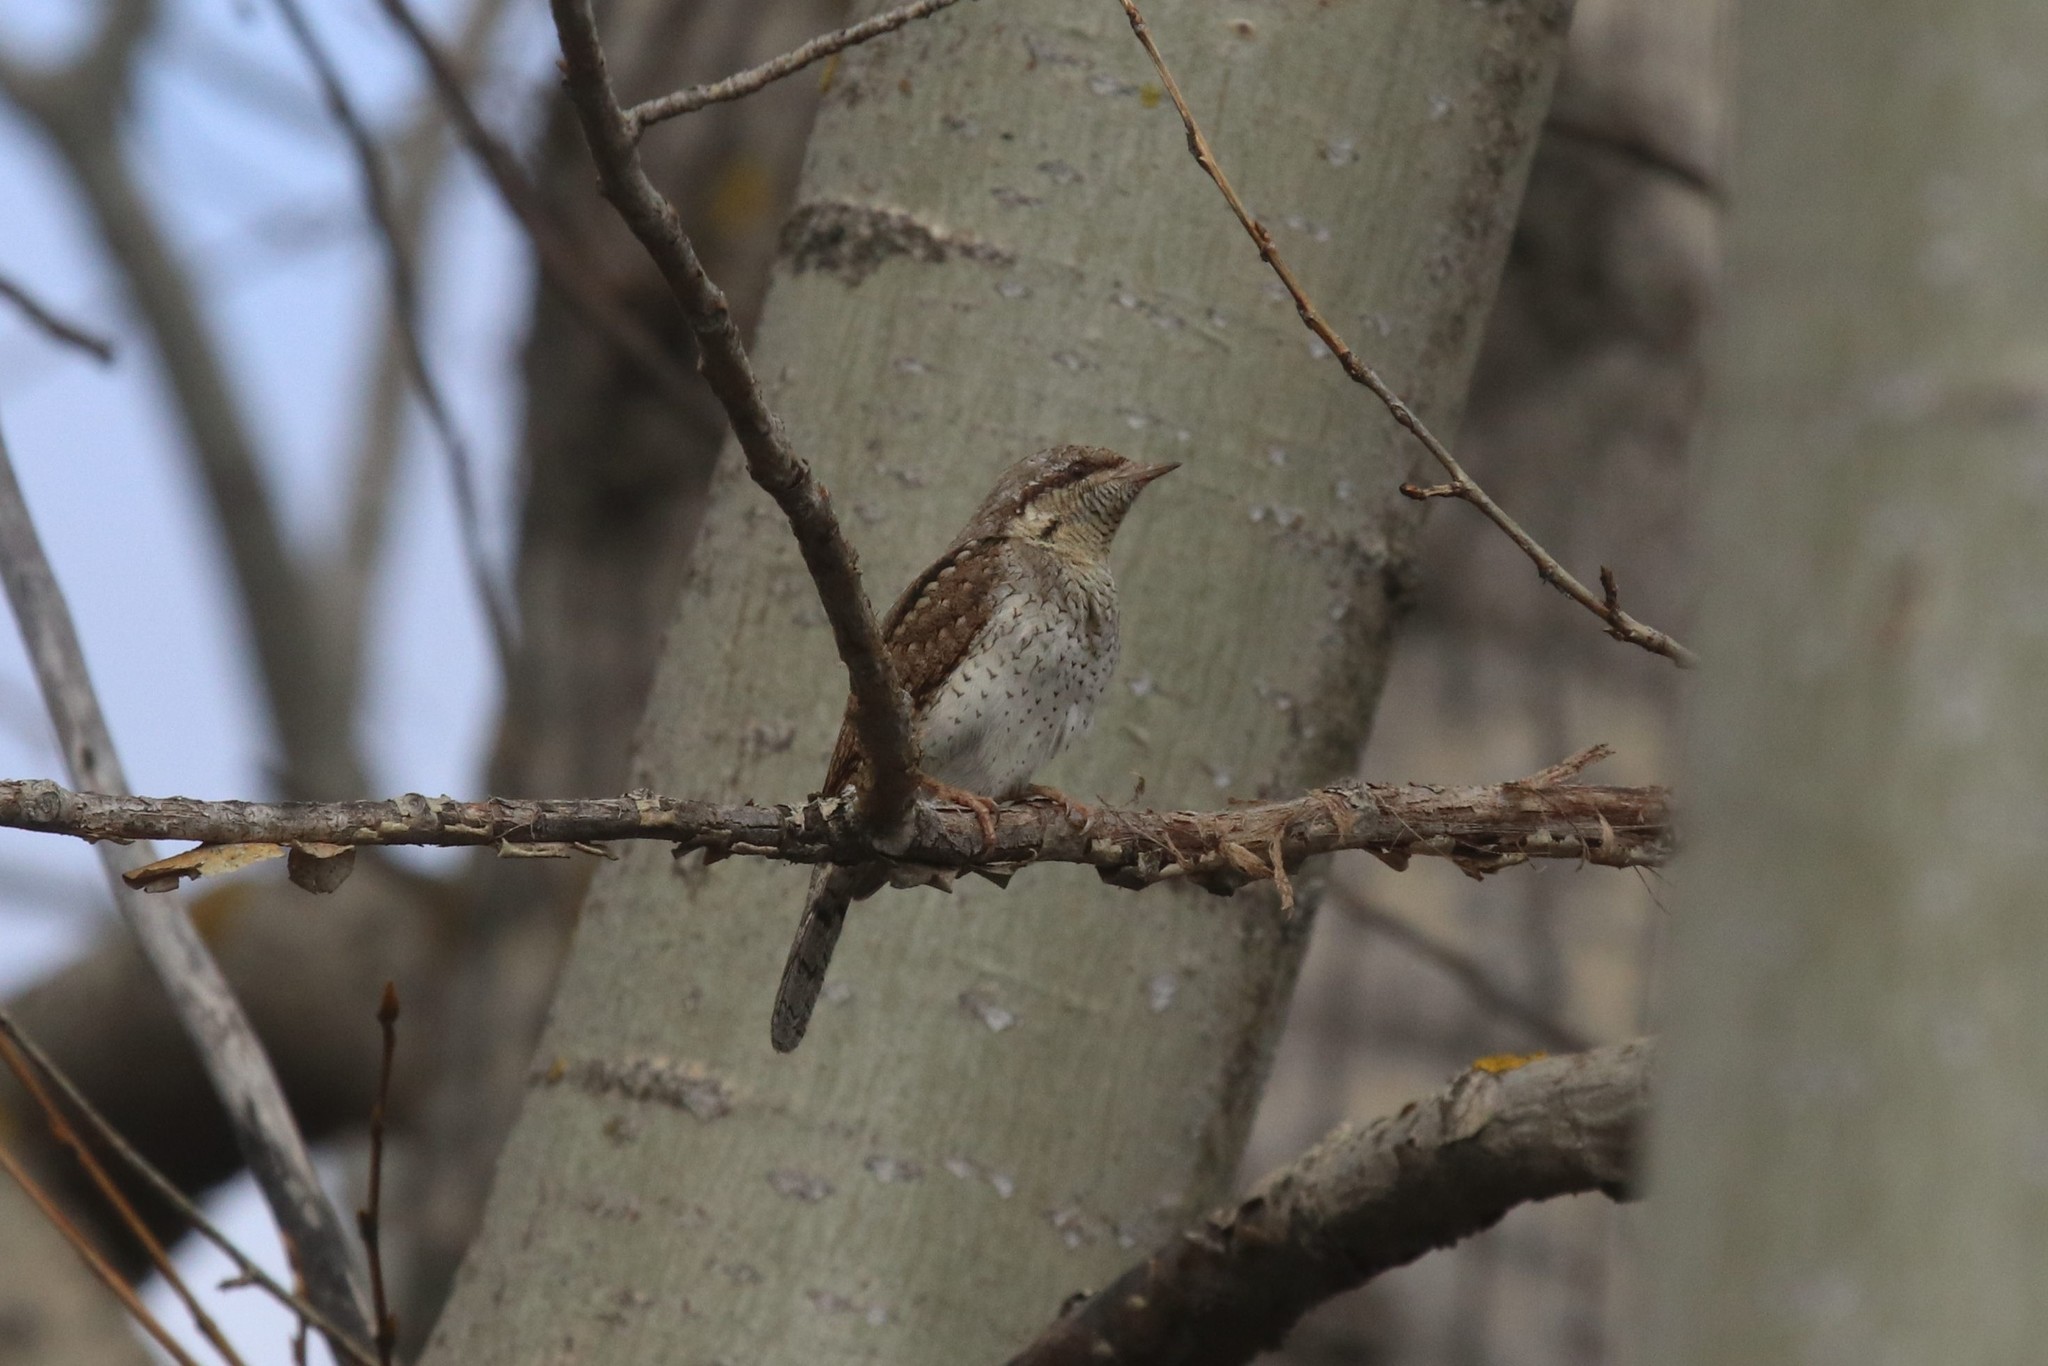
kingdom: Animalia
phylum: Chordata
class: Aves
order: Piciformes
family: Picidae
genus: Jynx
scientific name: Jynx torquilla
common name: Eurasian wryneck
